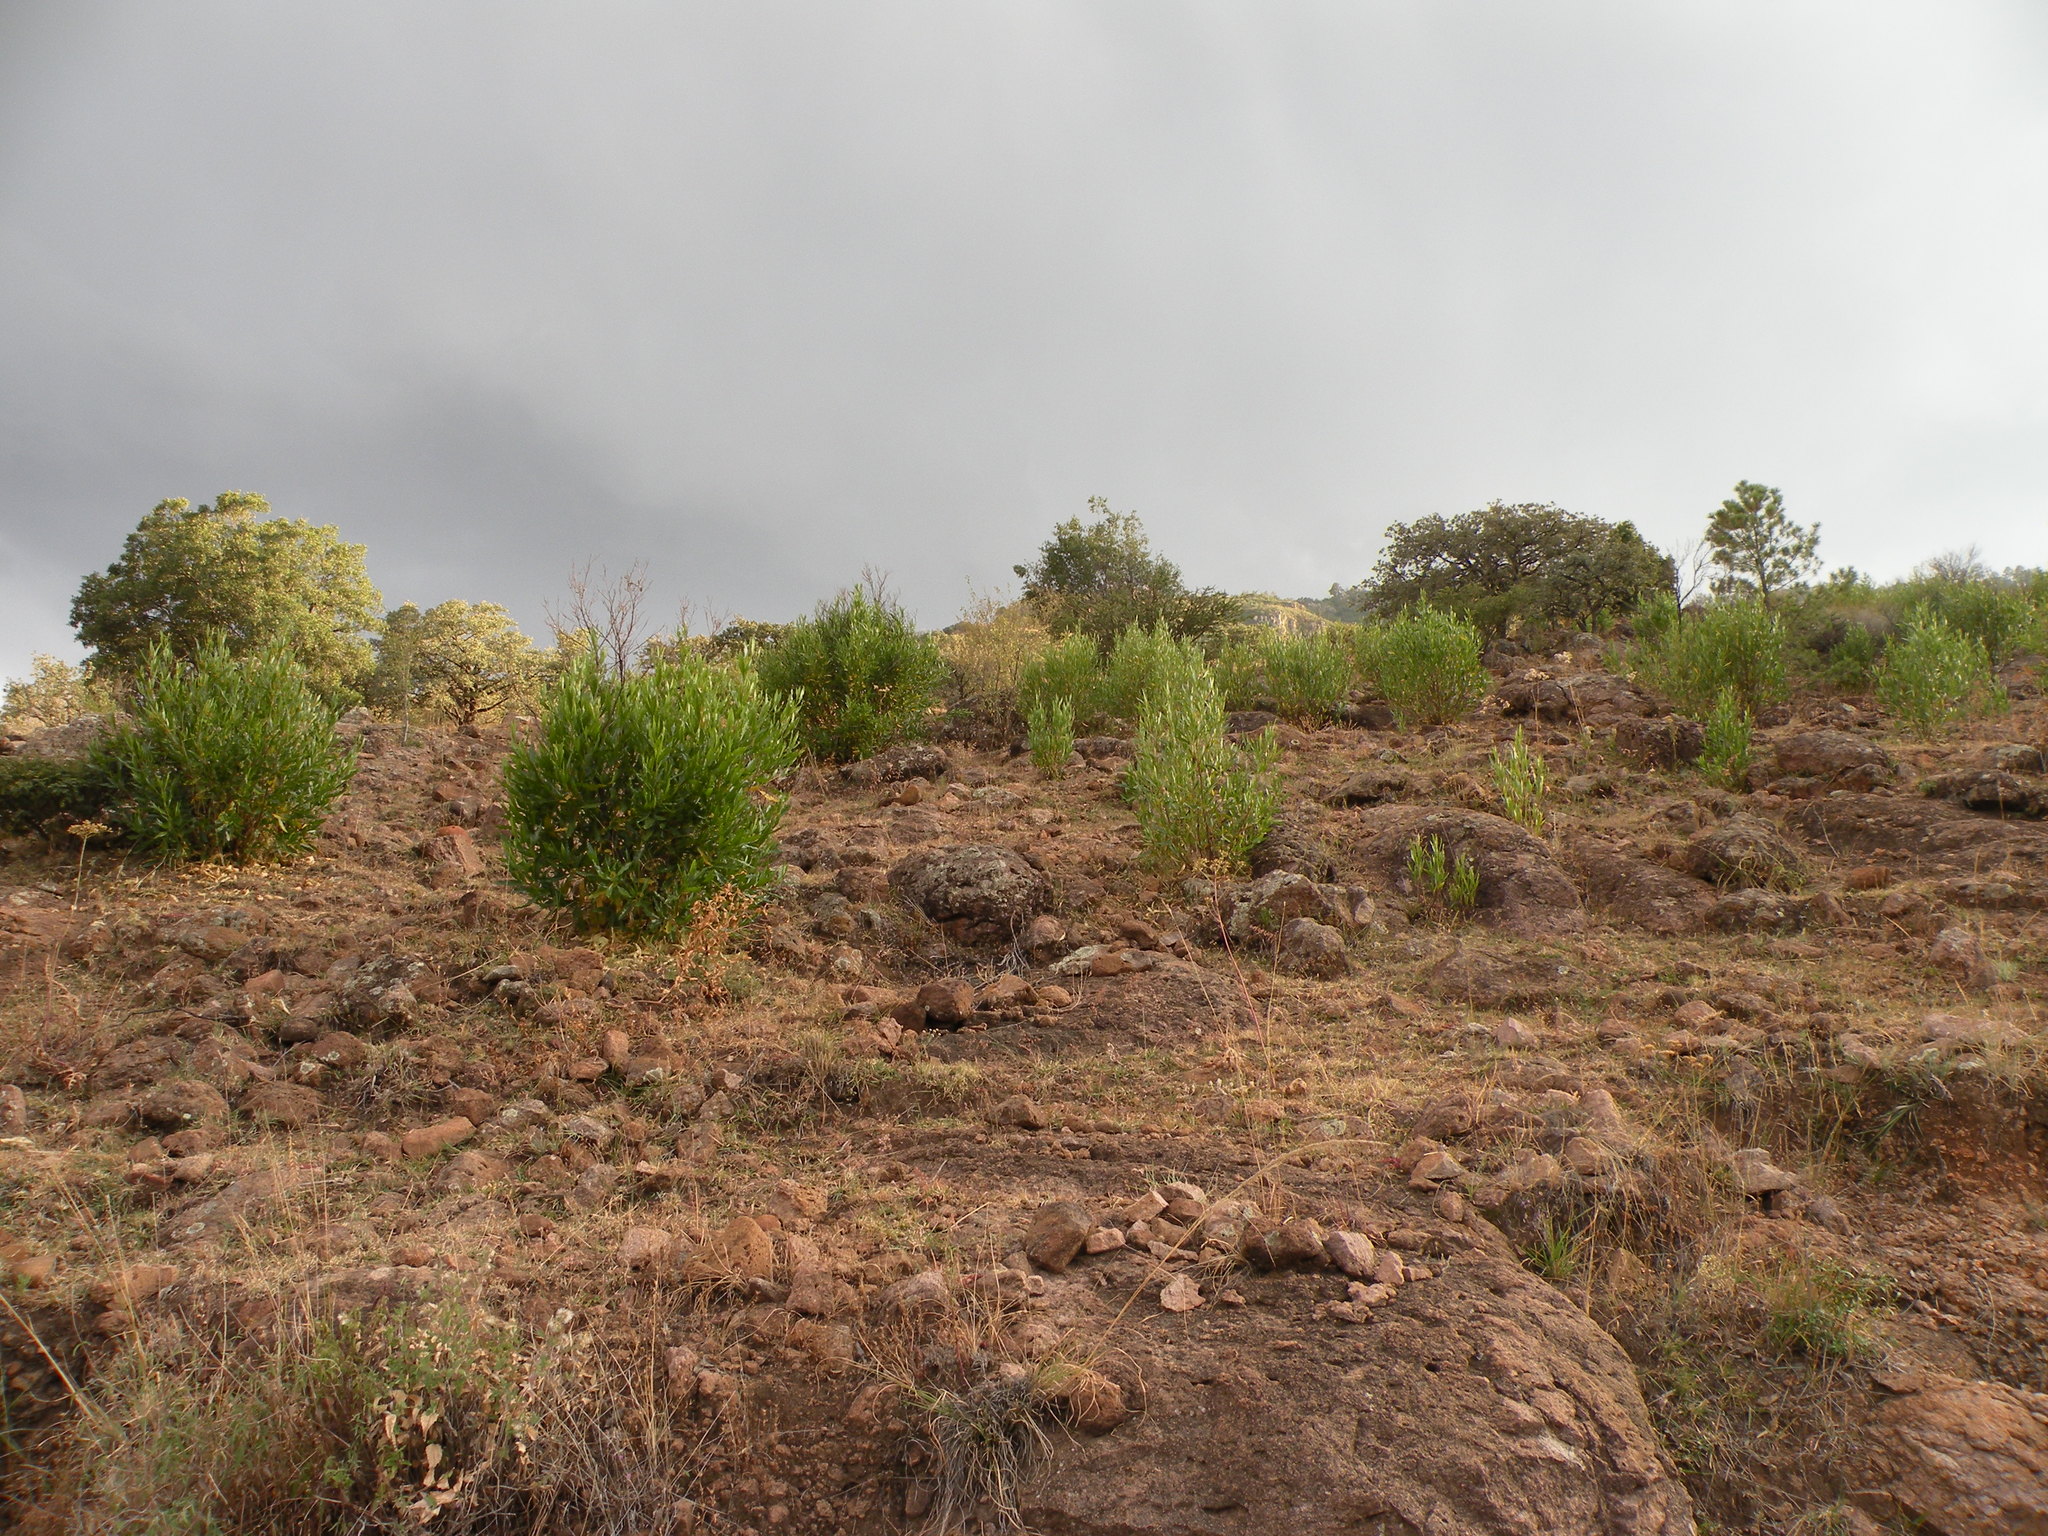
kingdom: Plantae
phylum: Tracheophyta
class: Magnoliopsida
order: Sapindales
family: Sapindaceae
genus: Dodonaea
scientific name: Dodonaea viscosa
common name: Hopbush
